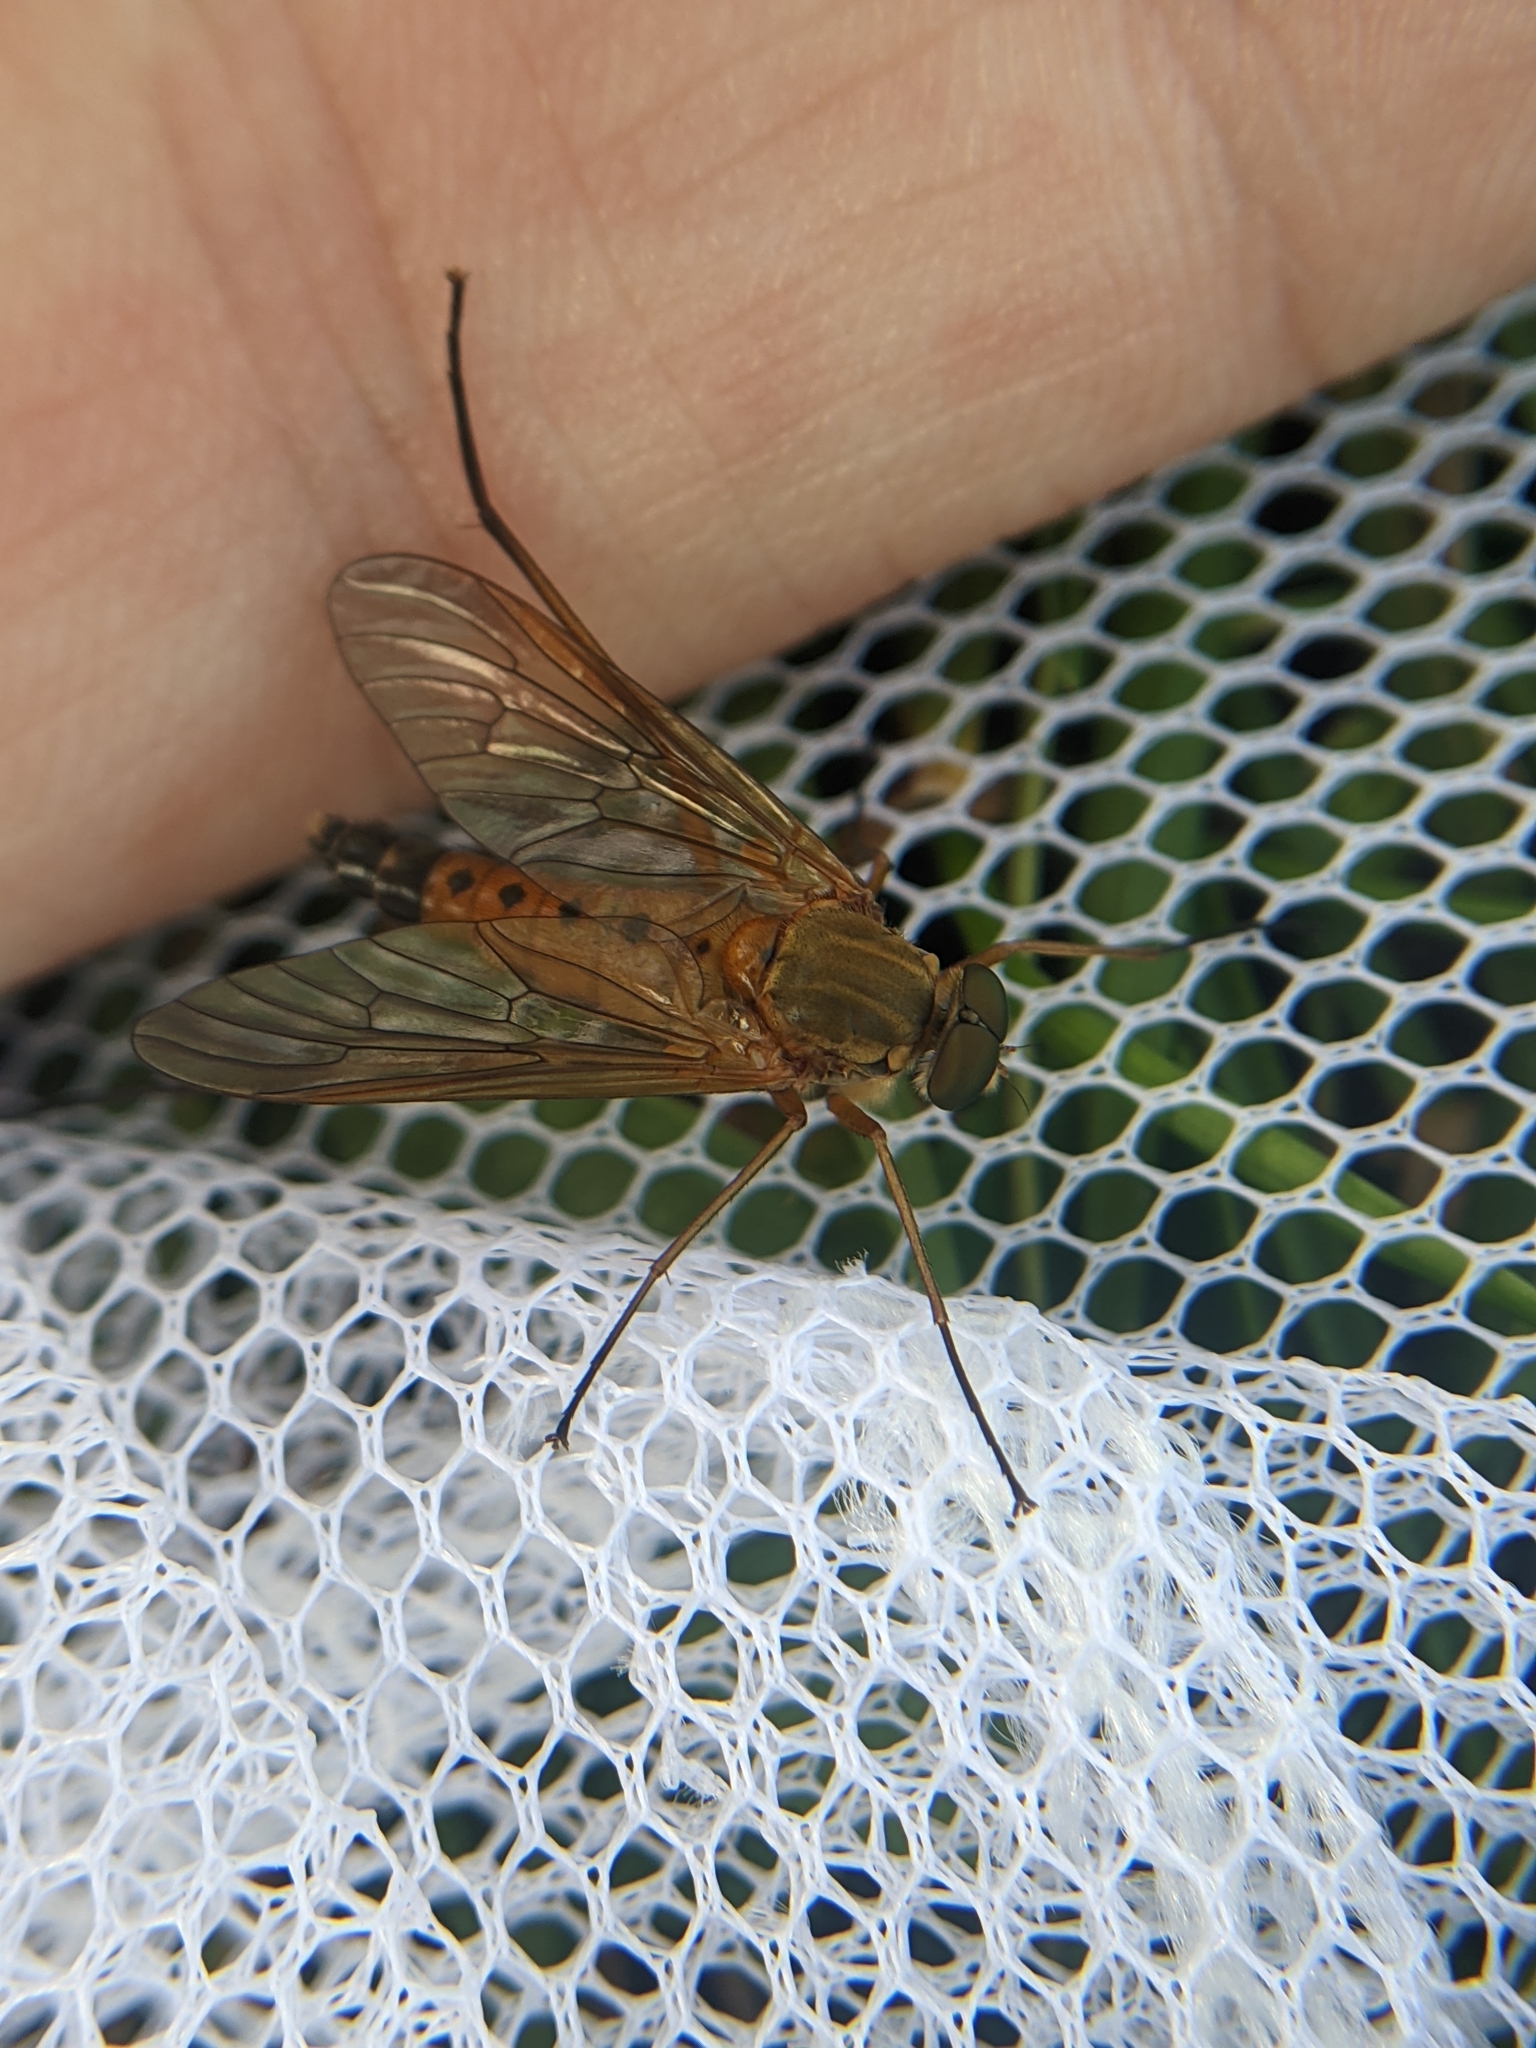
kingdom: Animalia
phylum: Arthropoda
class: Insecta
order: Diptera
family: Rhagionidae
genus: Rhagio
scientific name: Rhagio tringaria
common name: Marsh snipefly
